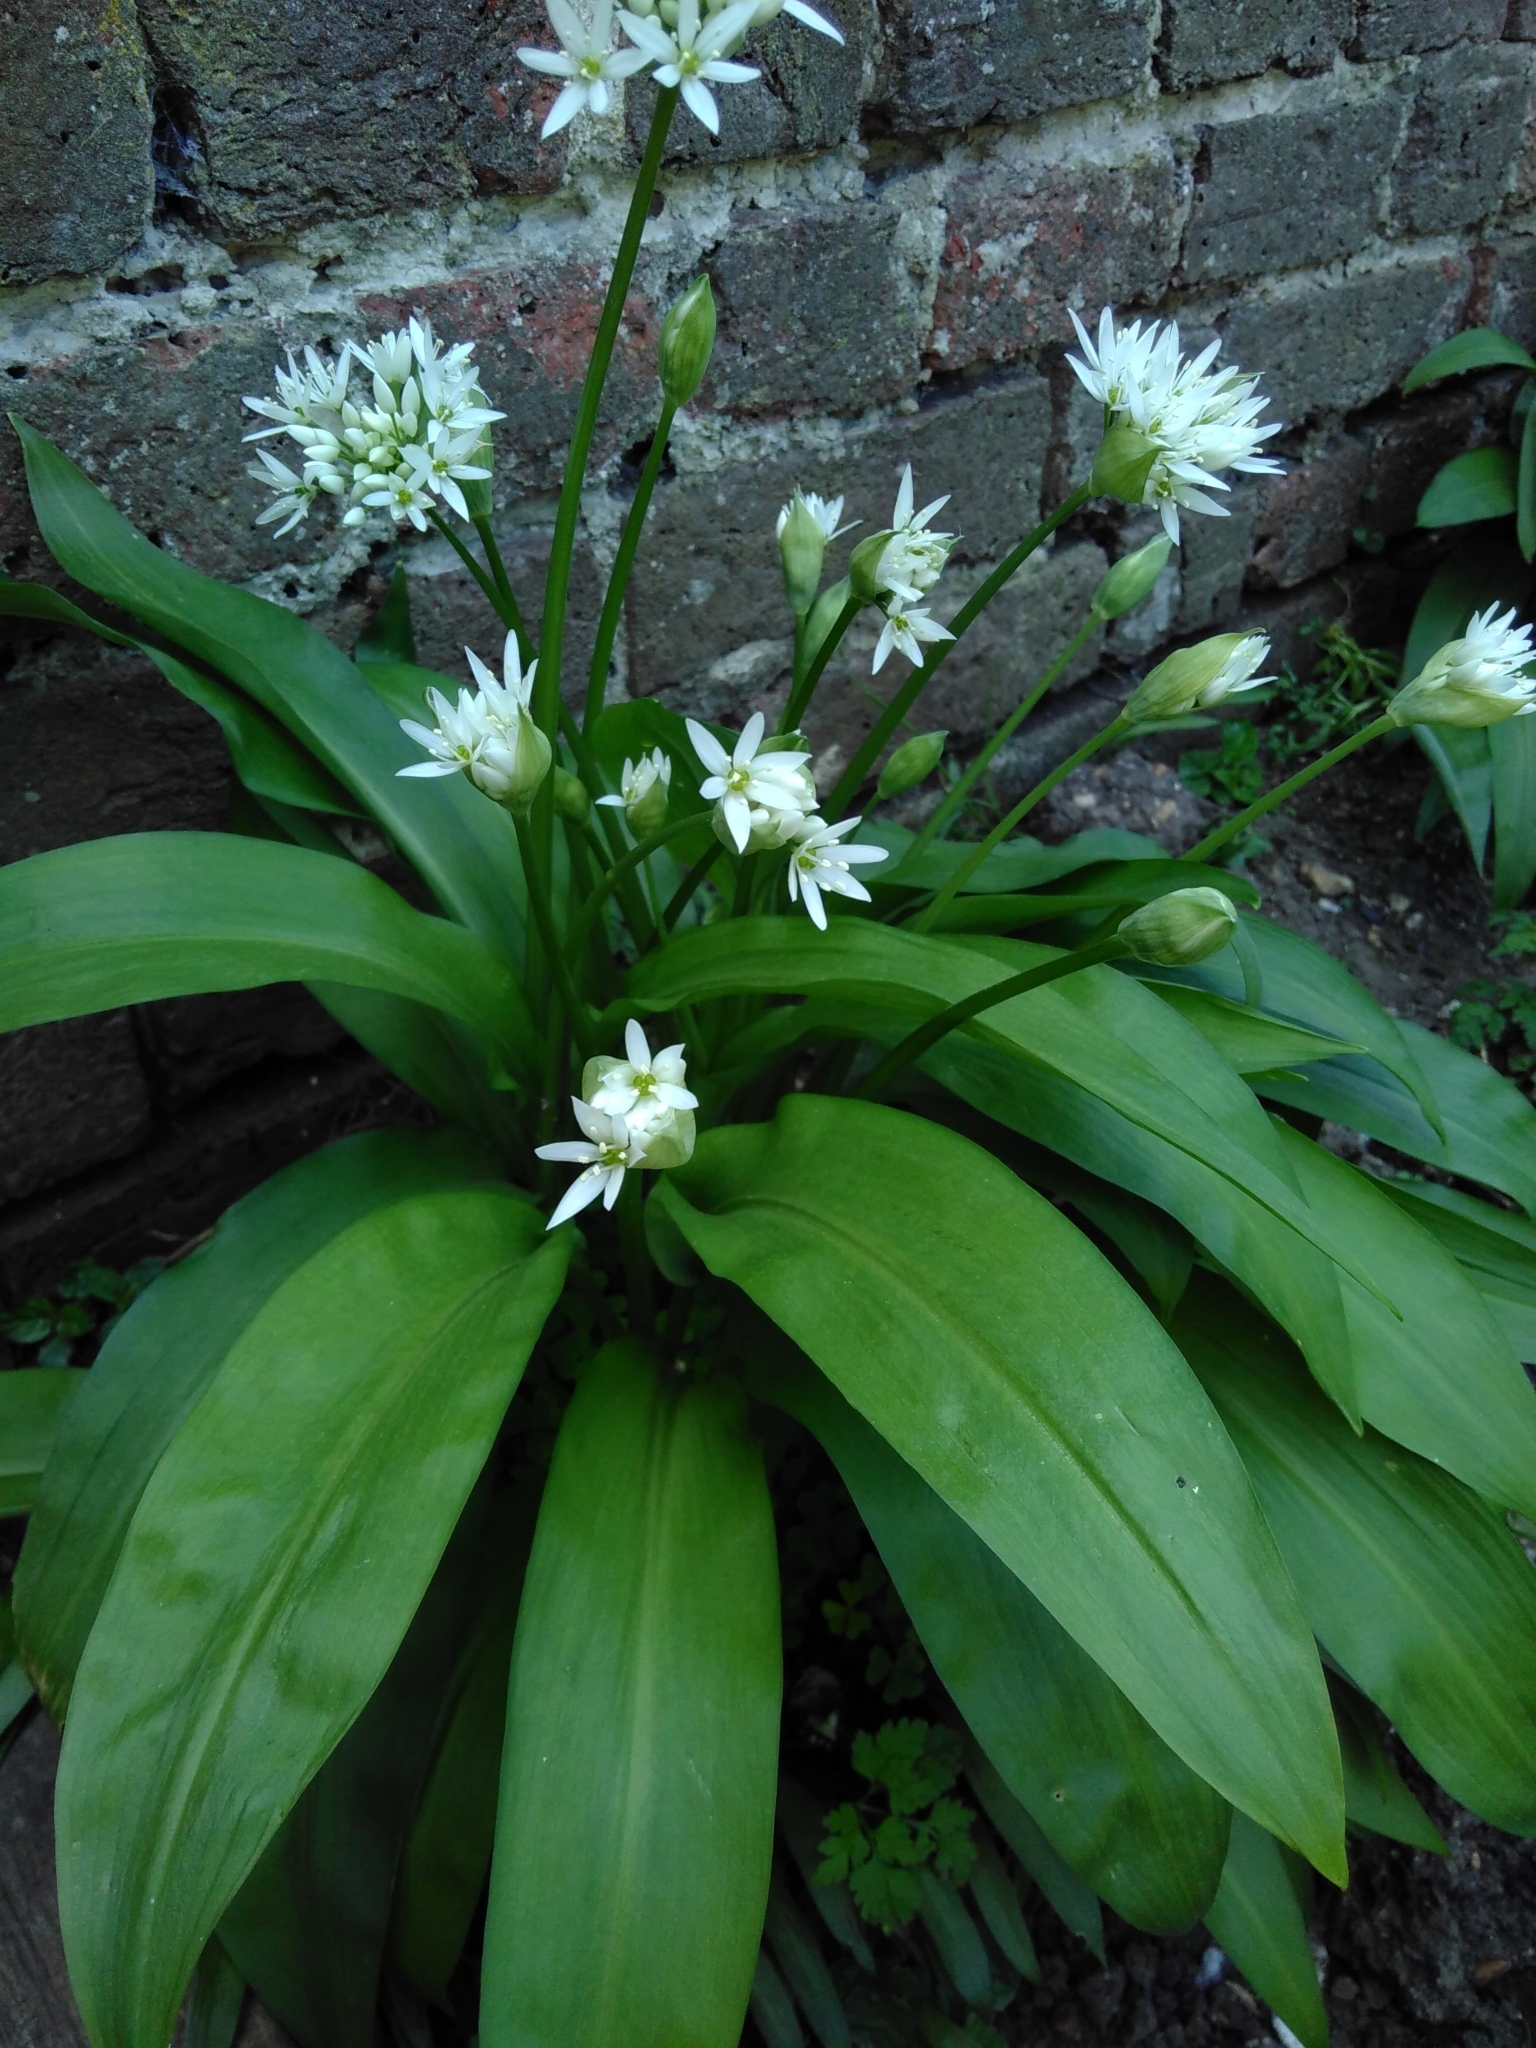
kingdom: Plantae
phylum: Tracheophyta
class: Liliopsida
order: Asparagales
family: Amaryllidaceae
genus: Allium
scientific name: Allium ursinum
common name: Ramsons
